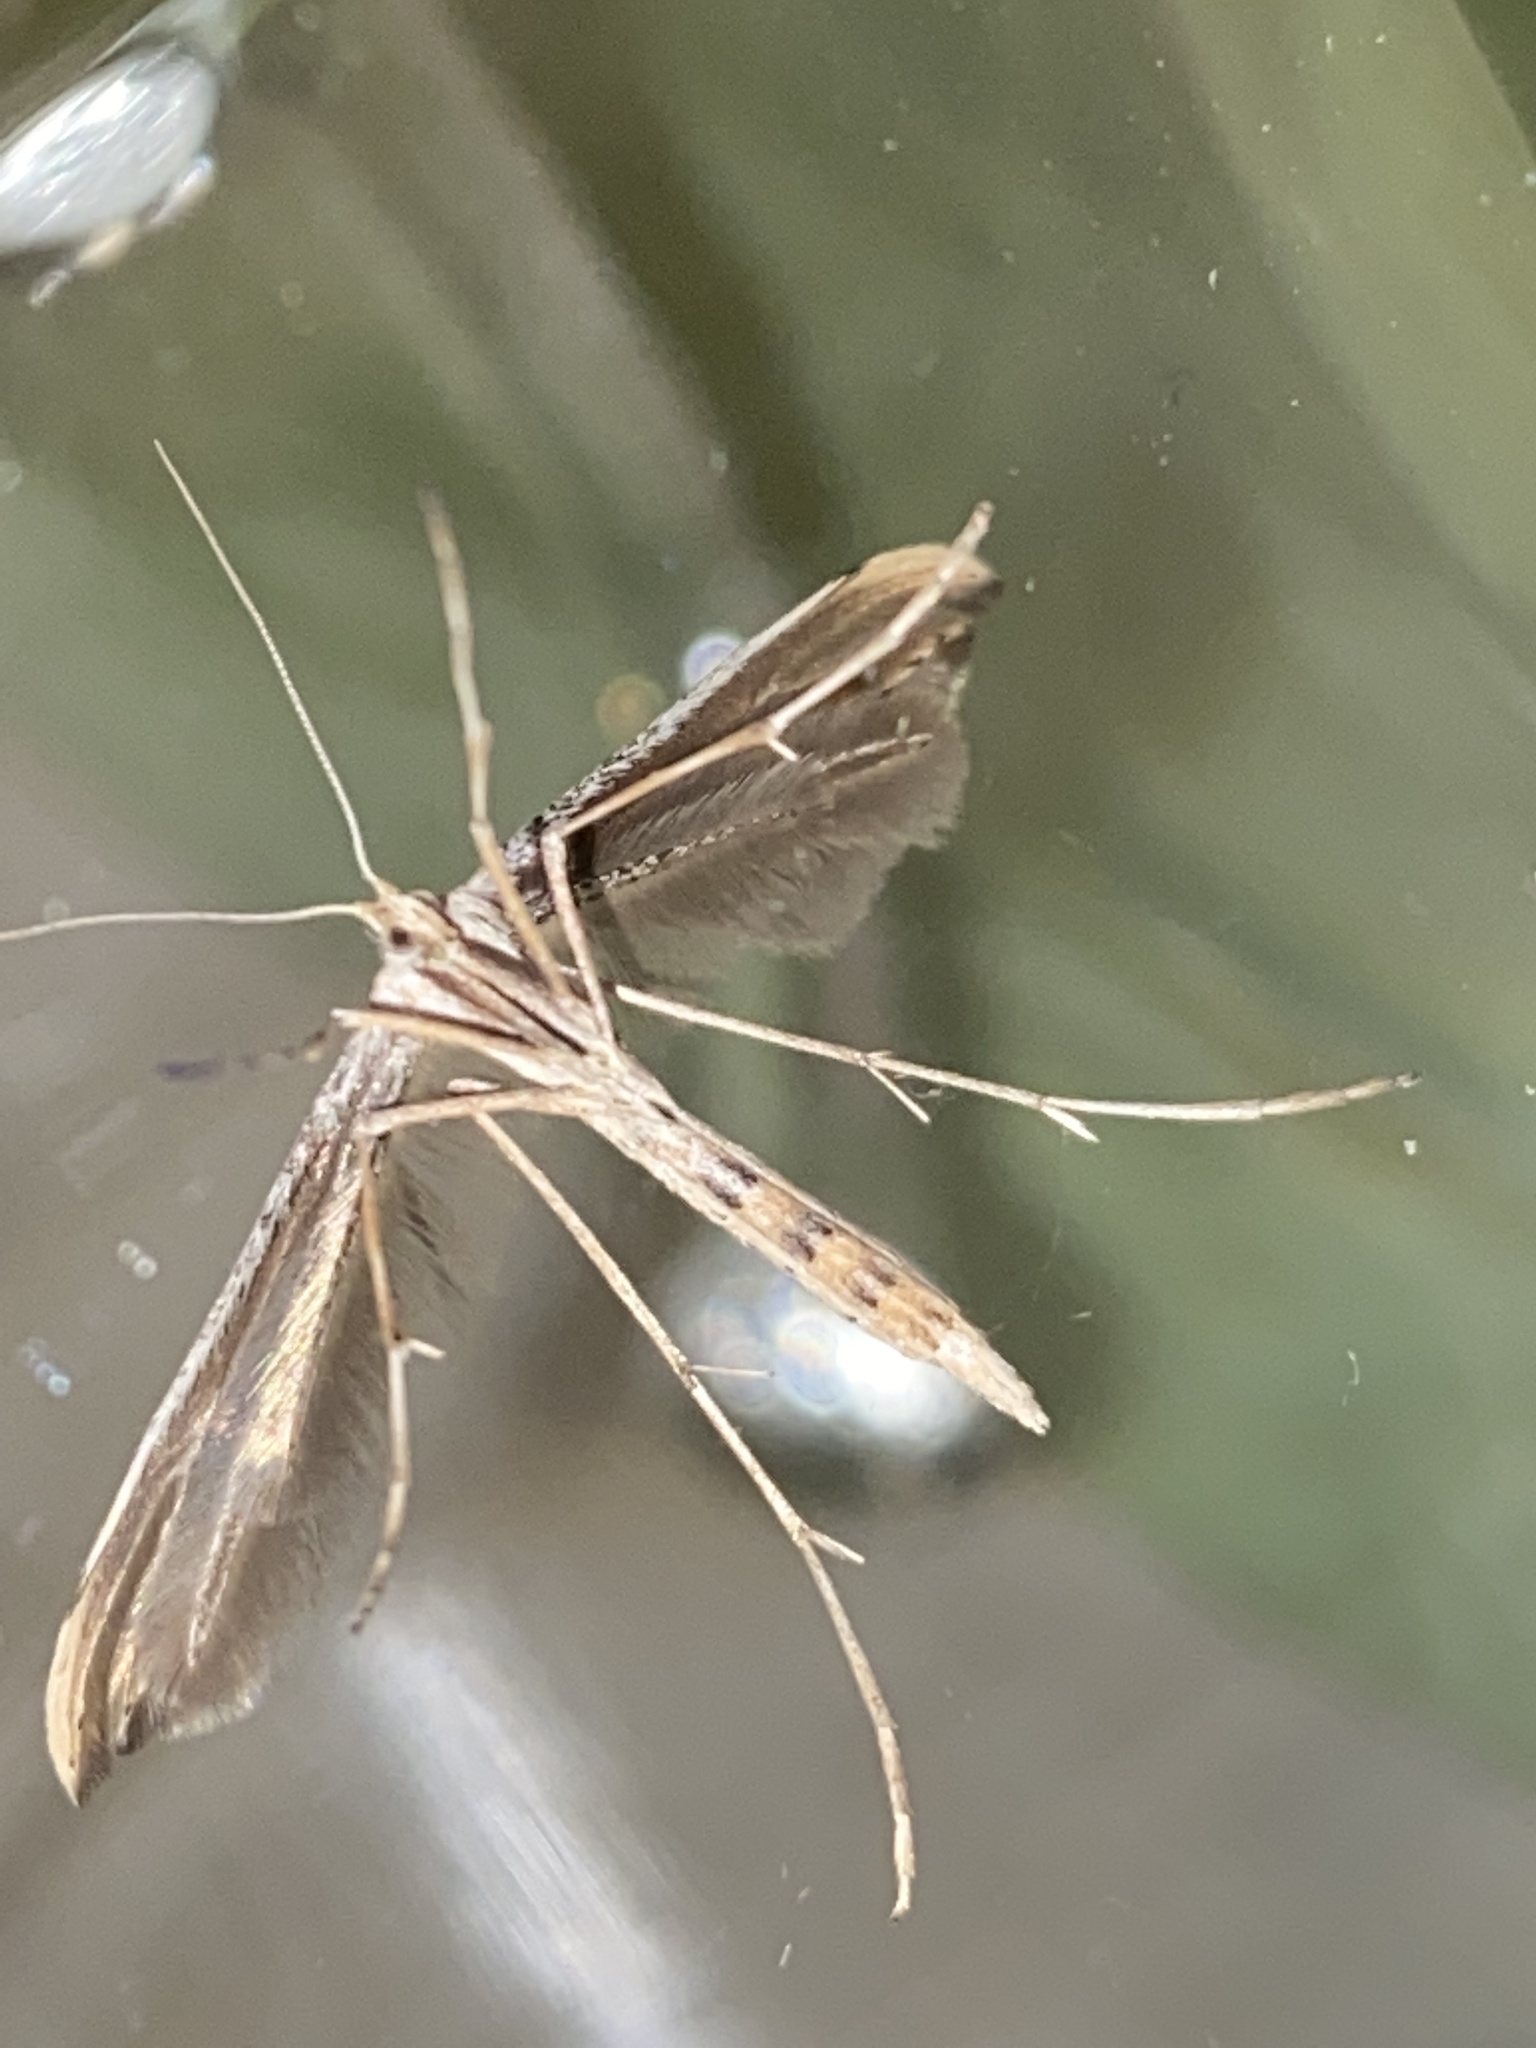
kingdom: Animalia
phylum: Arthropoda
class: Insecta
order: Lepidoptera
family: Pterophoridae
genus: Emmelina
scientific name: Emmelina monodactyla
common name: Common plume
